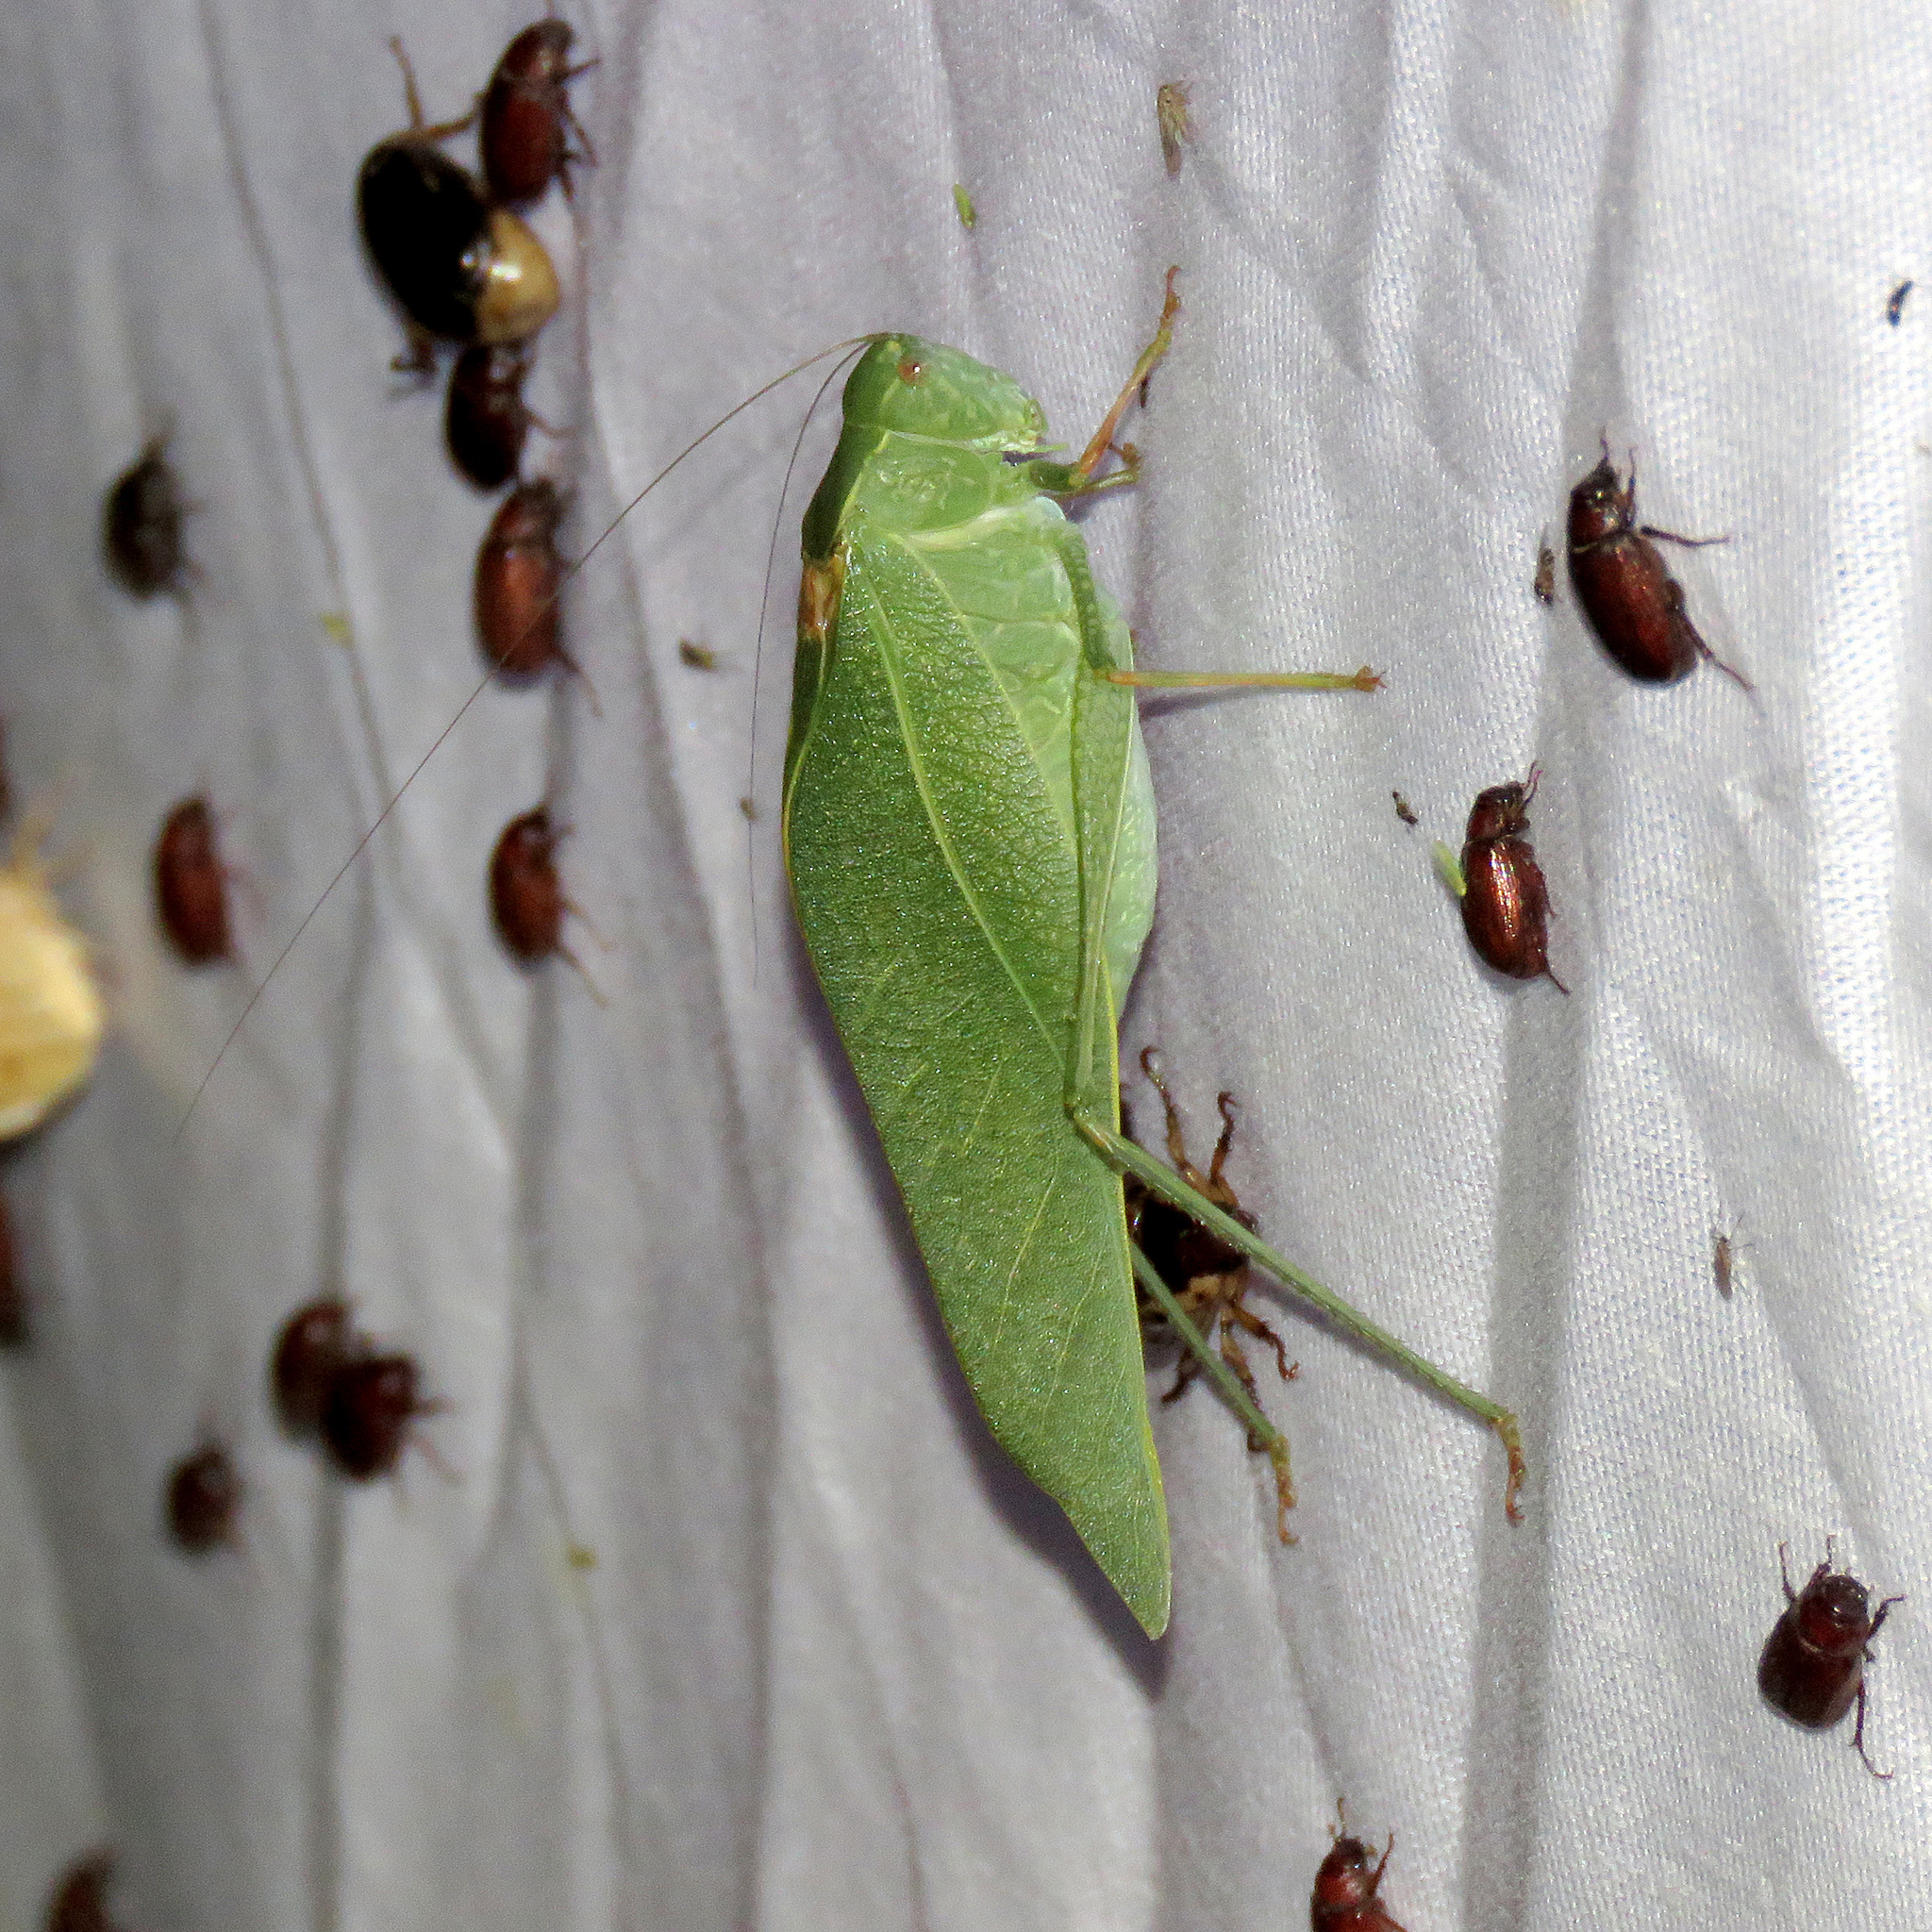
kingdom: Animalia
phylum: Arthropoda
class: Insecta
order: Orthoptera
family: Tettigoniidae
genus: Microcentrum
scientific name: Microcentrum californicum
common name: California angle-wing
